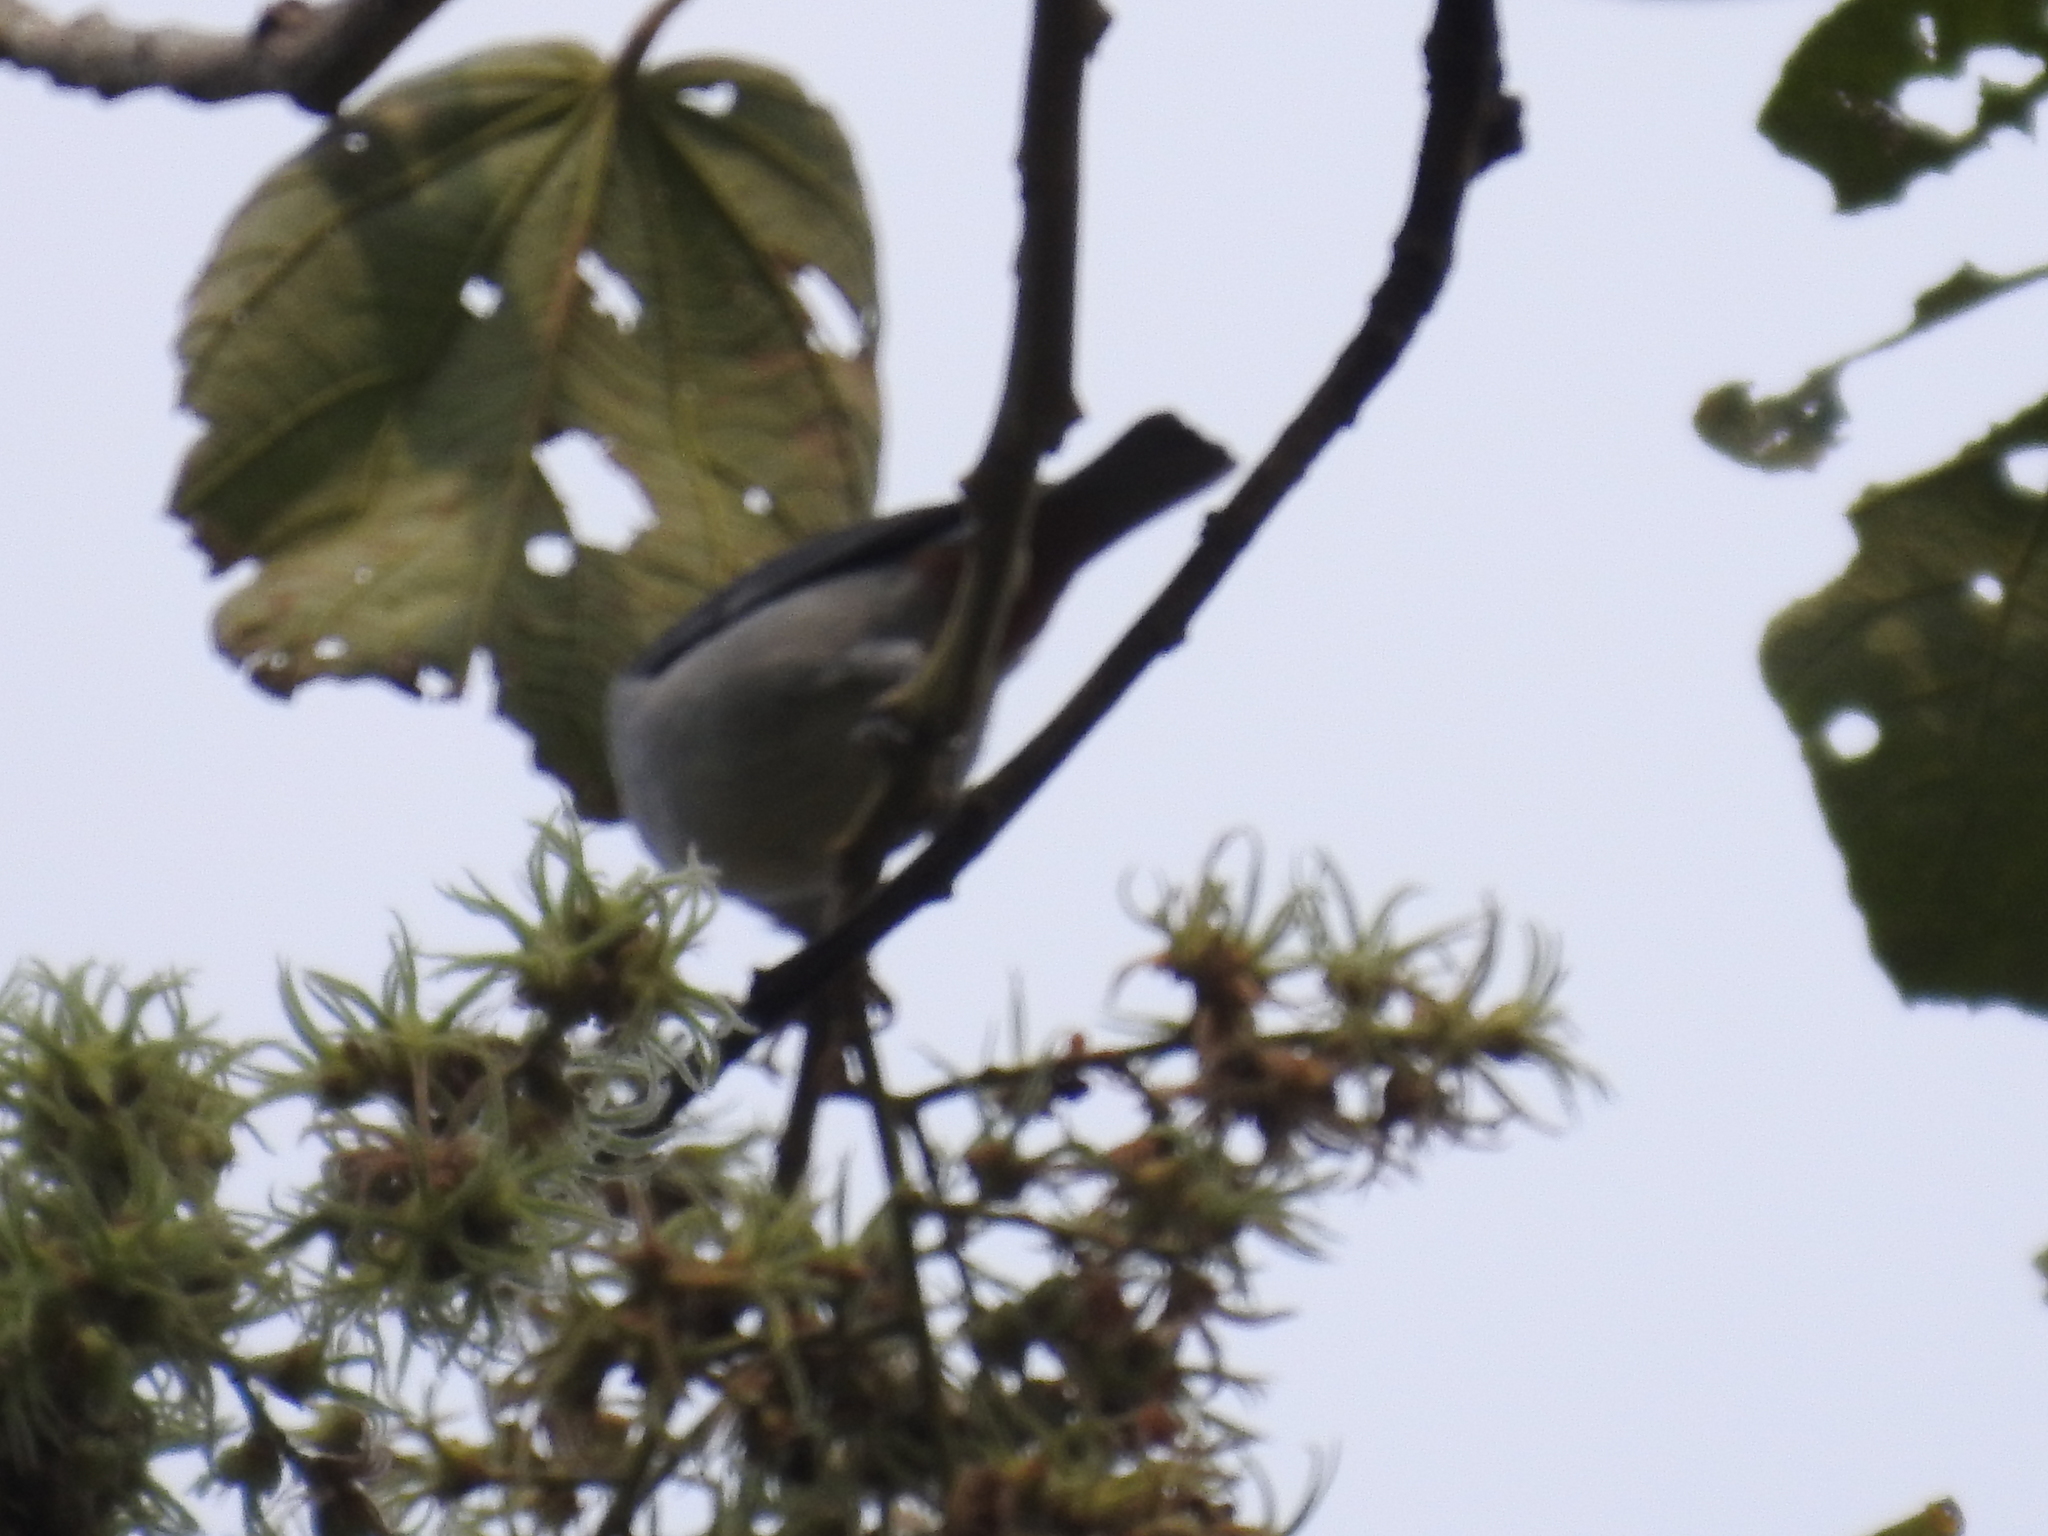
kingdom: Animalia
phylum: Chordata
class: Aves
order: Passeriformes
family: Thraupidae
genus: Conirostrum
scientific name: Conirostrum speciosum
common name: Chestnut-vented conebill
